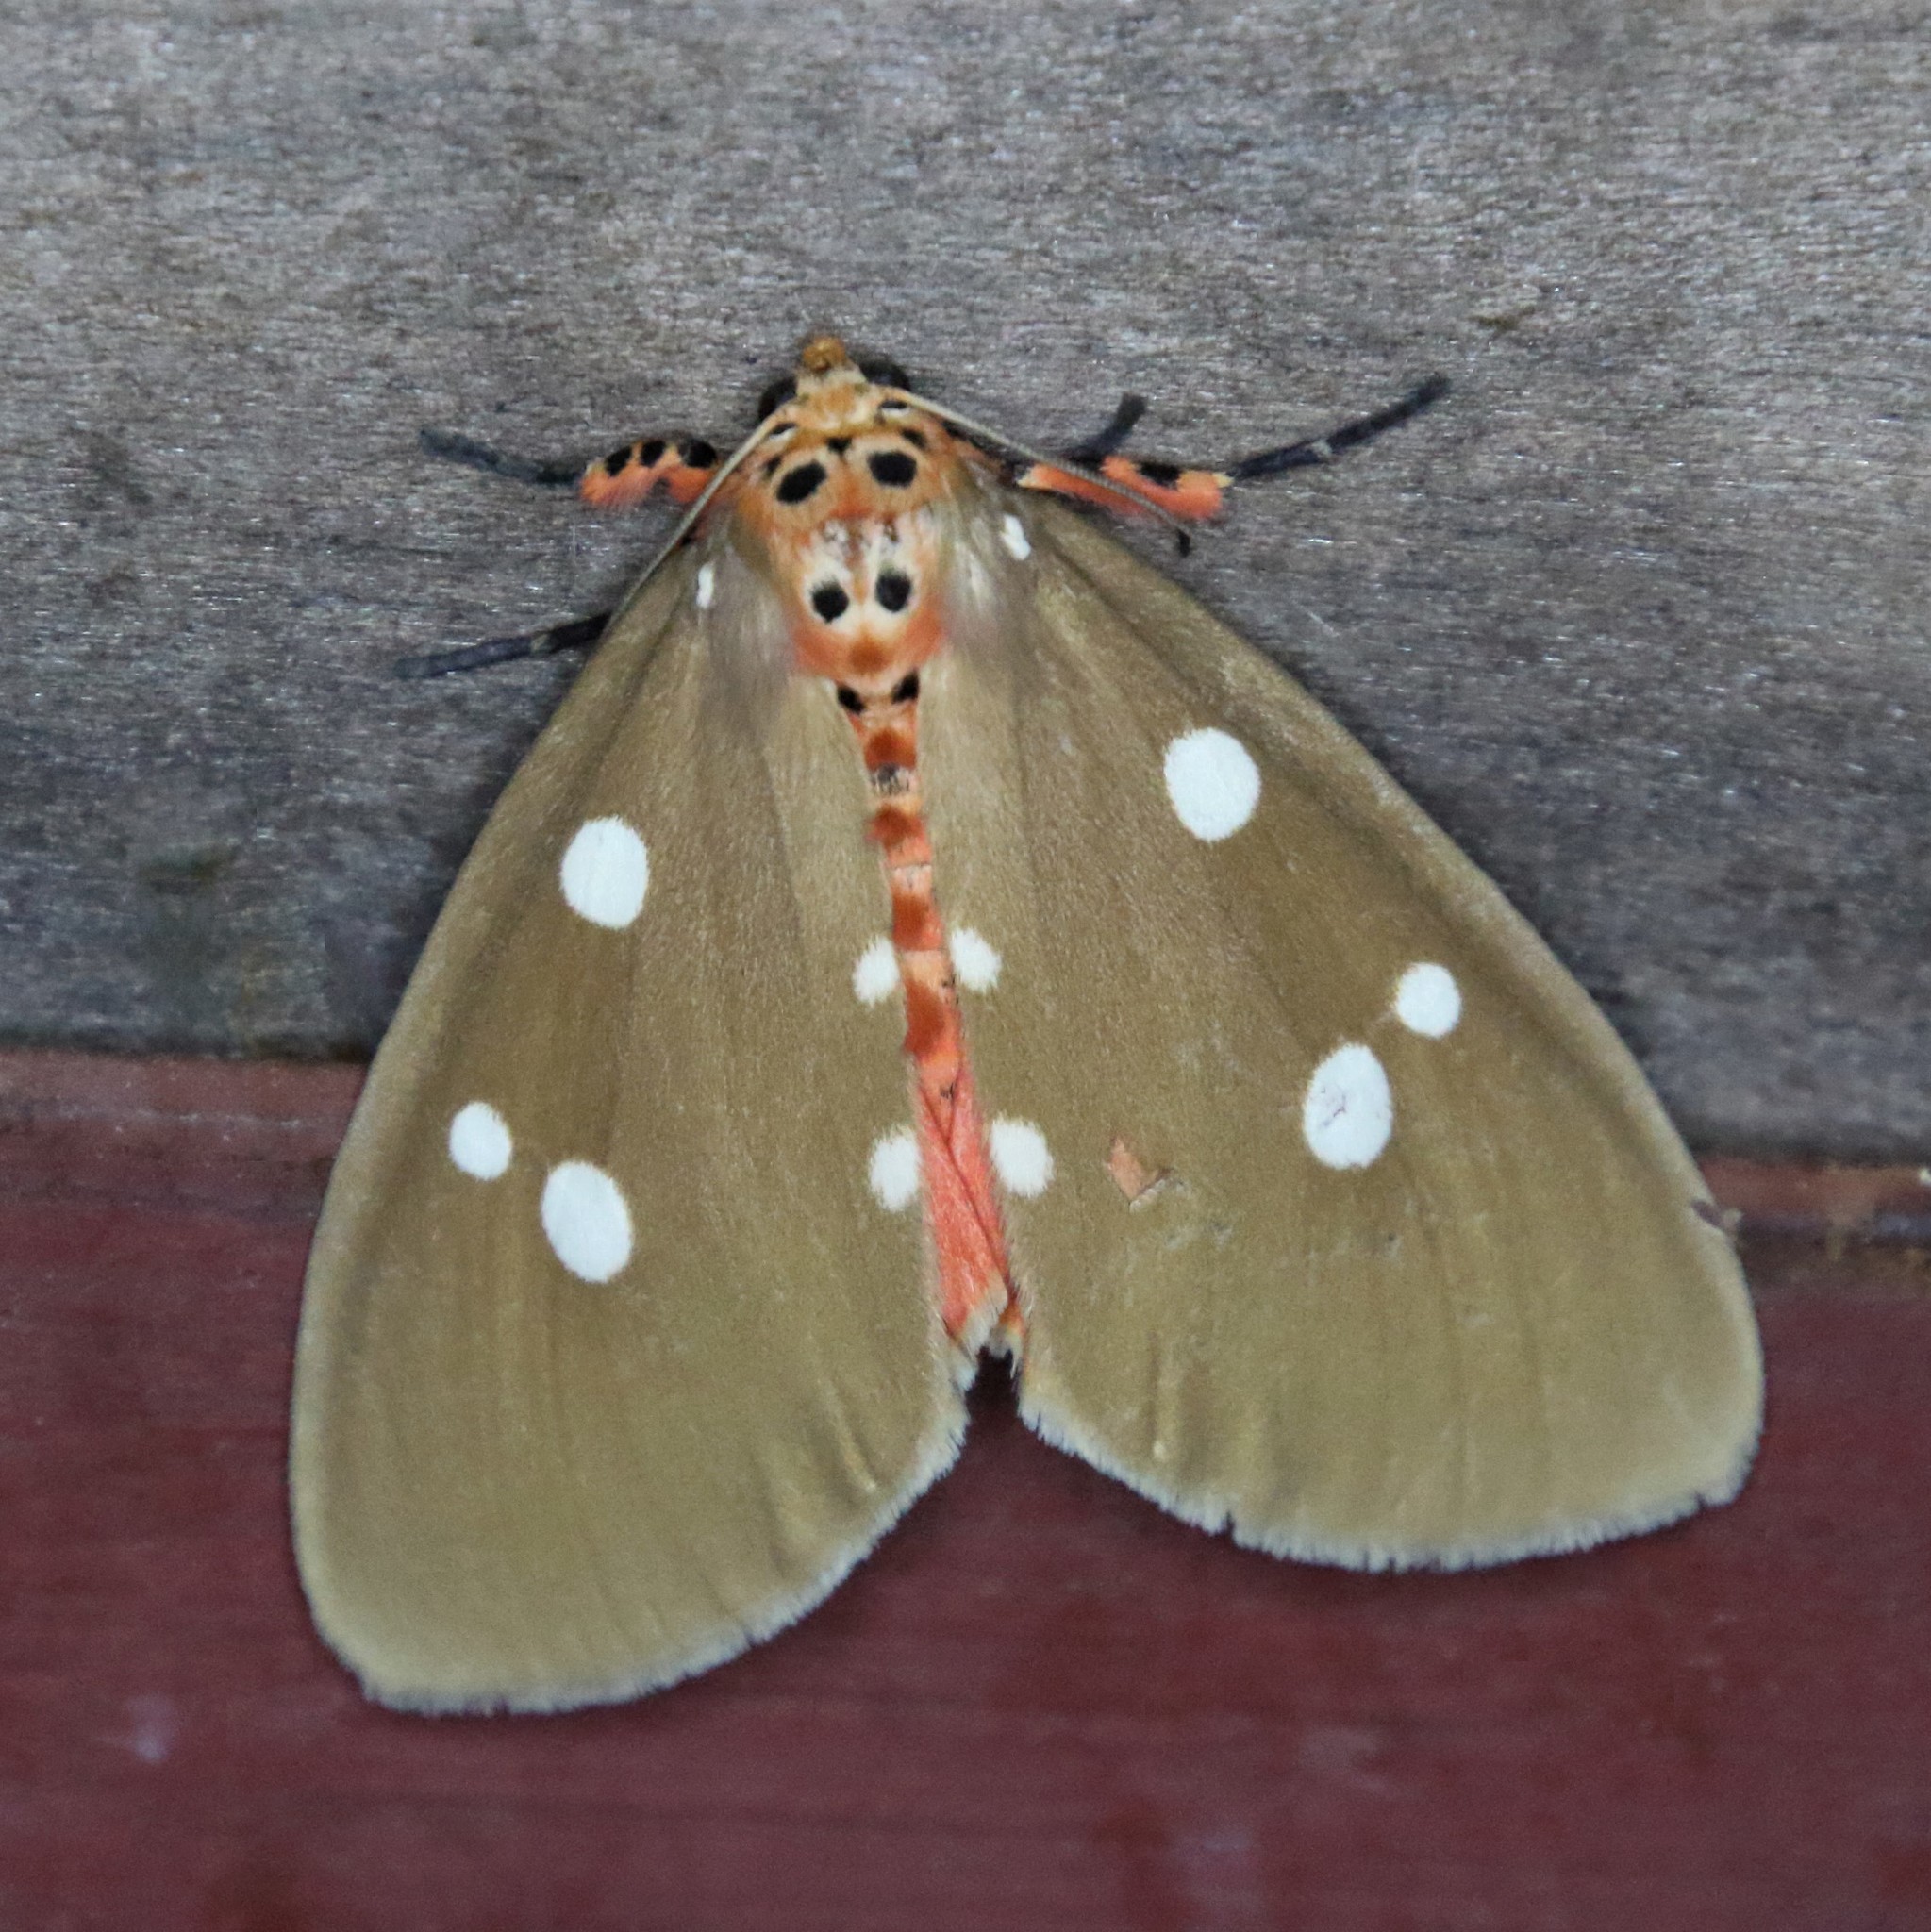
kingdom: Animalia
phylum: Arthropoda
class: Insecta
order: Lepidoptera
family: Erebidae
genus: Tinolius
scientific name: Tinolius eburneigutta
